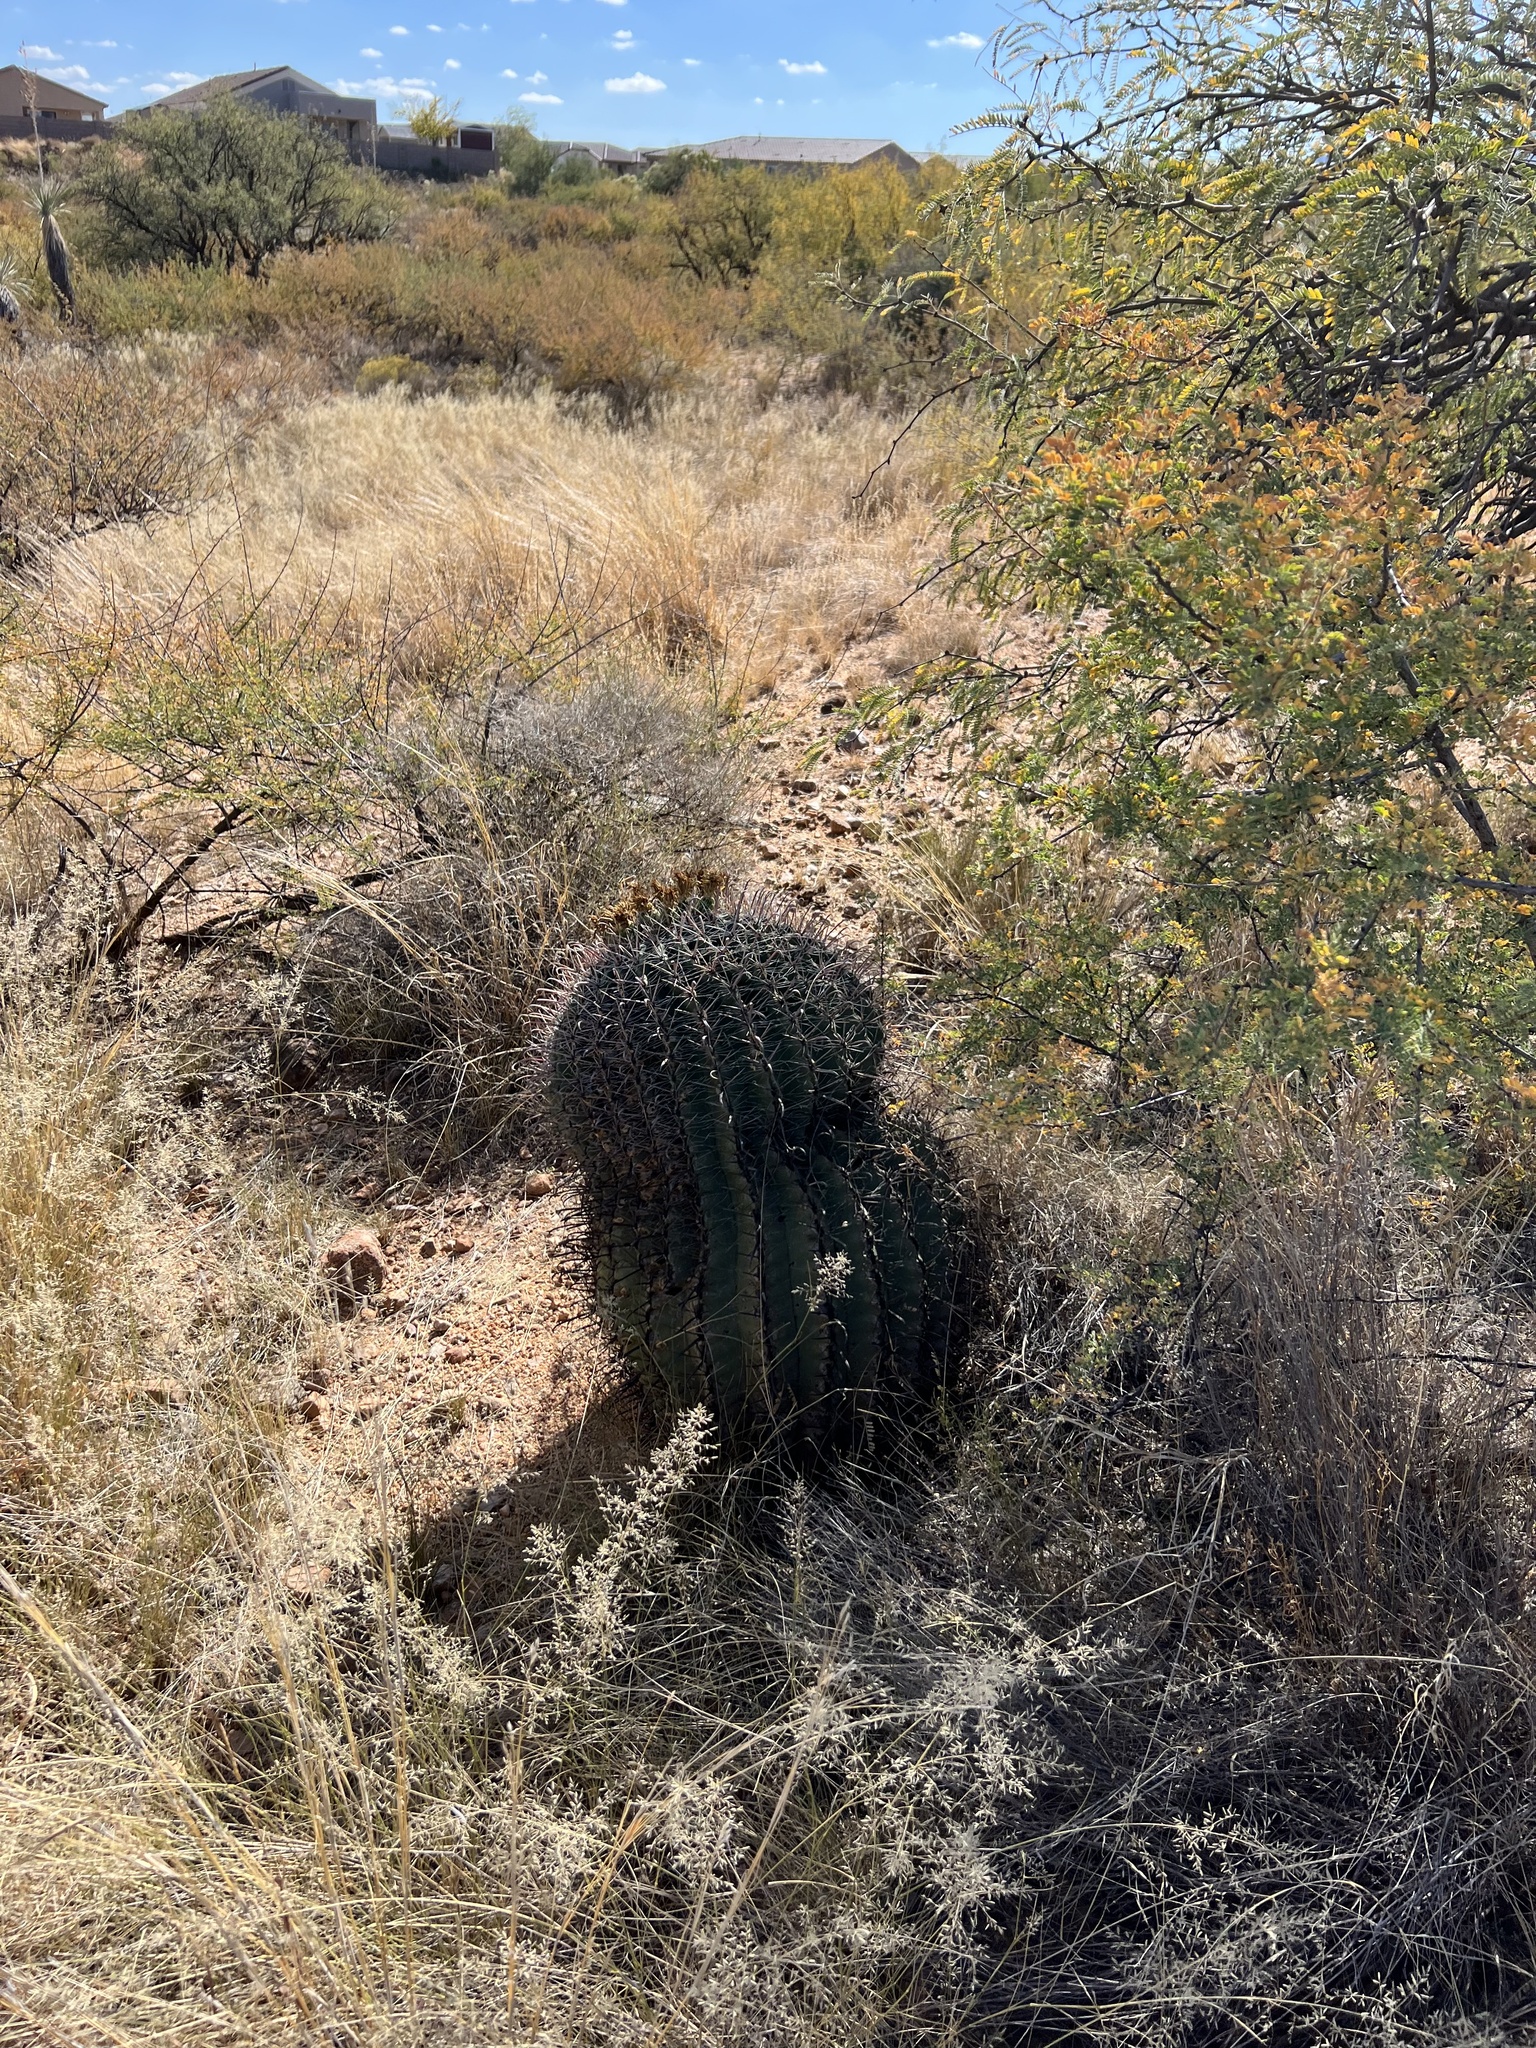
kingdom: Plantae
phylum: Tracheophyta
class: Magnoliopsida
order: Caryophyllales
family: Cactaceae
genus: Ferocactus
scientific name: Ferocactus wislizeni
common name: Candy barrel cactus
